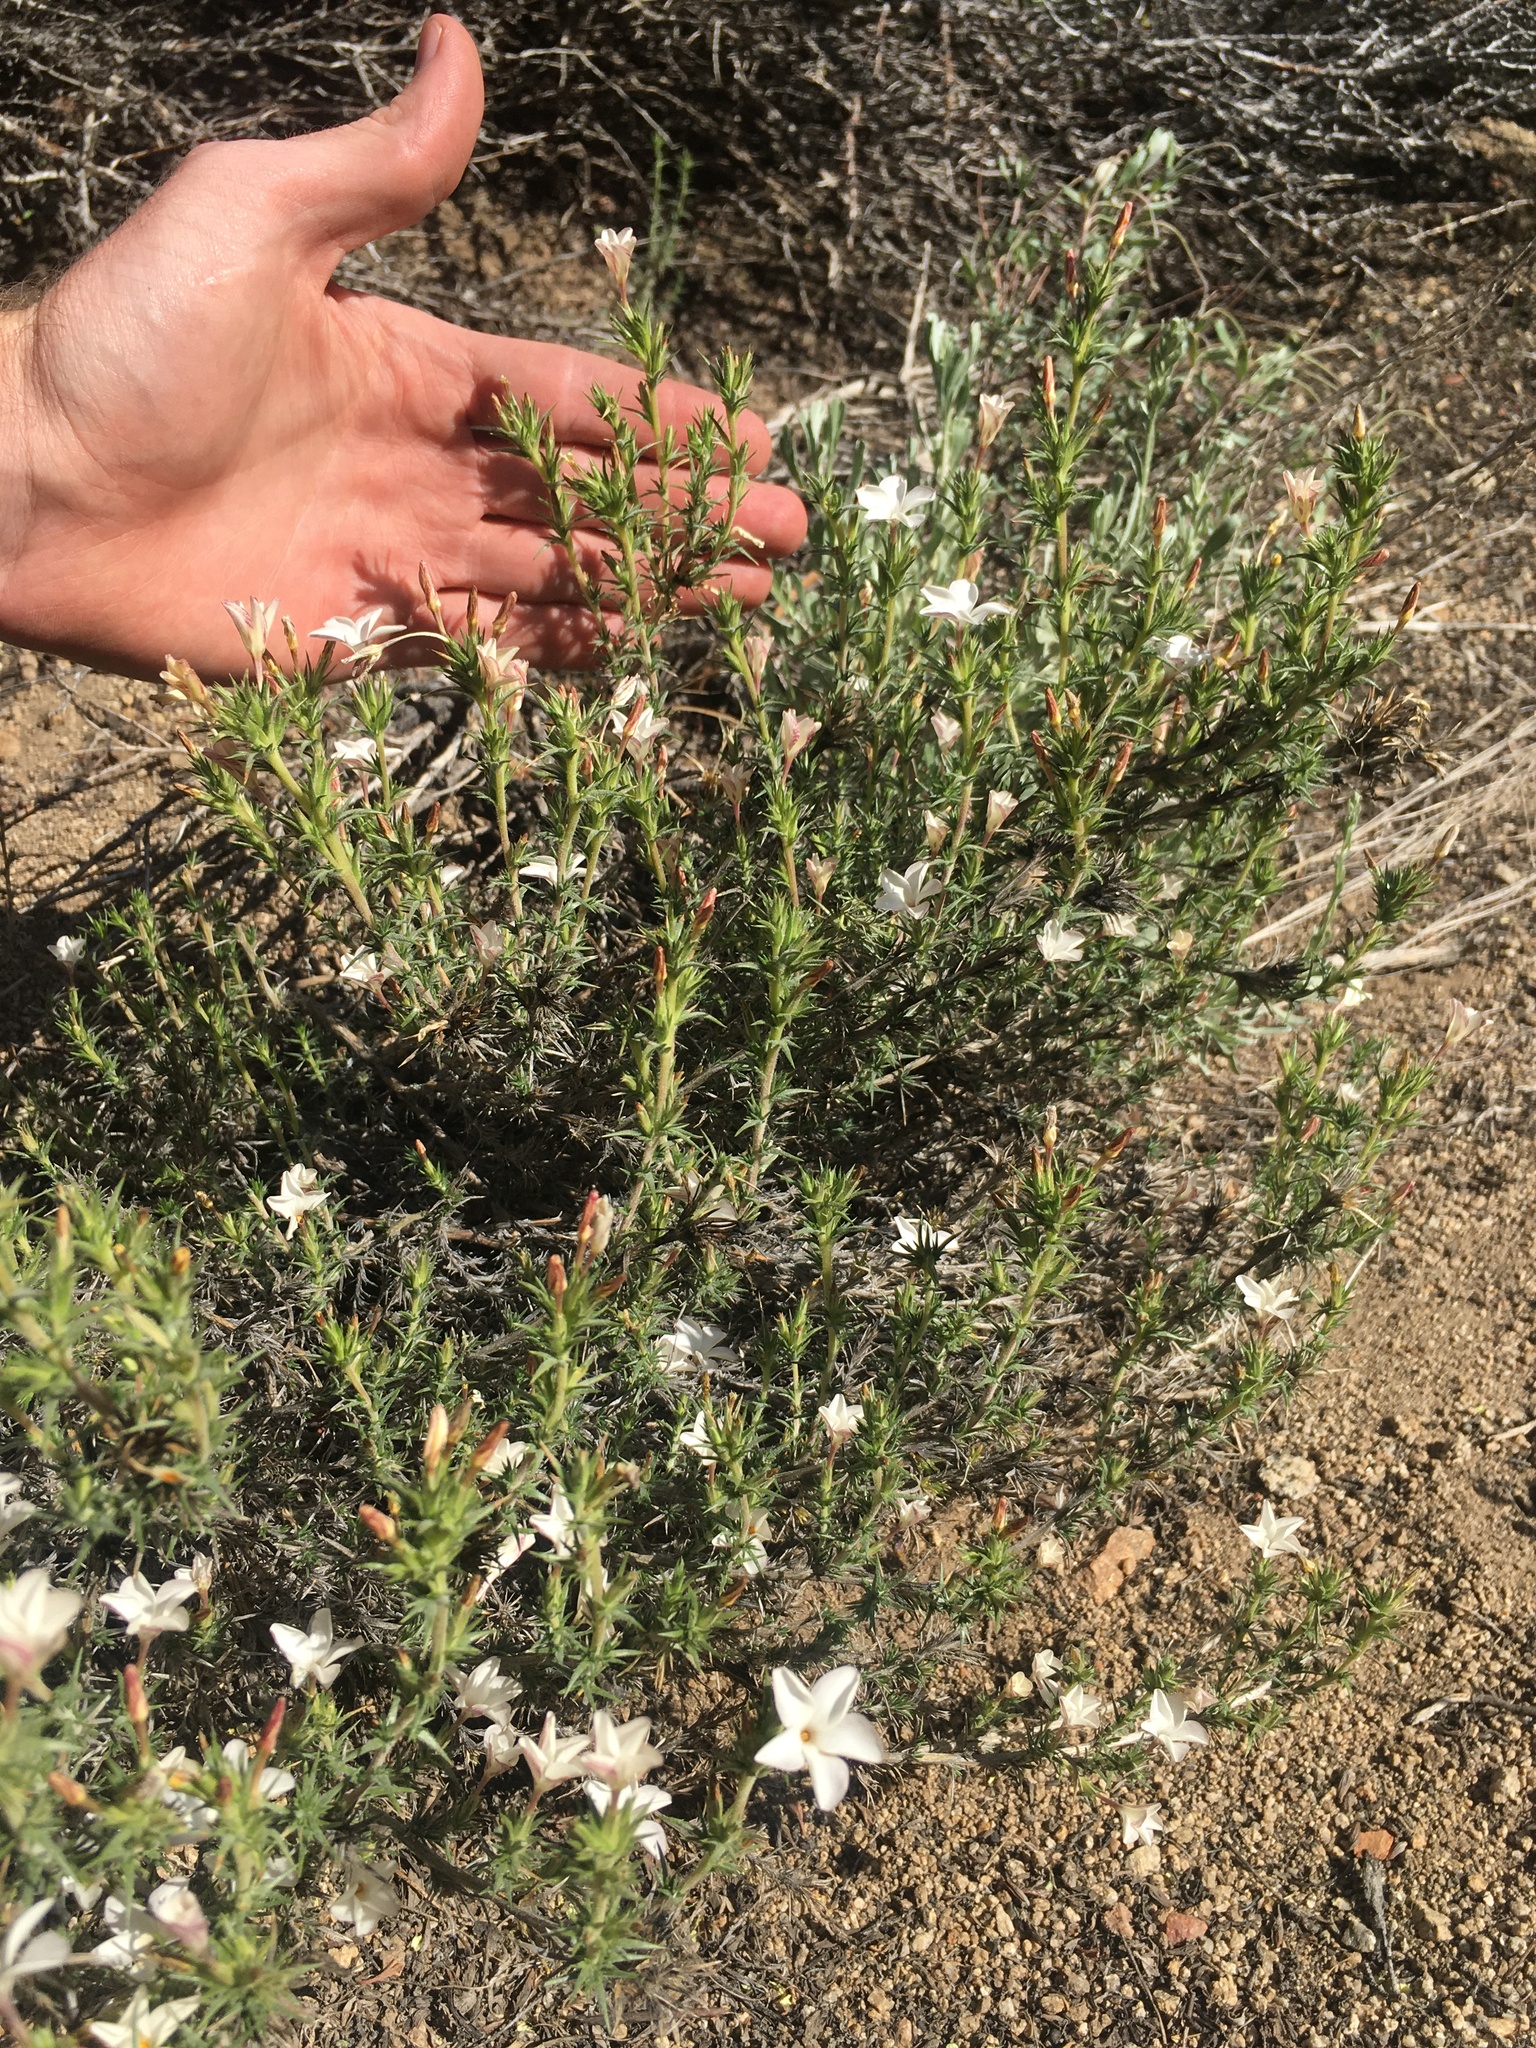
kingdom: Plantae
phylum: Tracheophyta
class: Magnoliopsida
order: Ericales
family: Polemoniaceae
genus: Linanthus
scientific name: Linanthus pungens
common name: Granite prickly phlox
